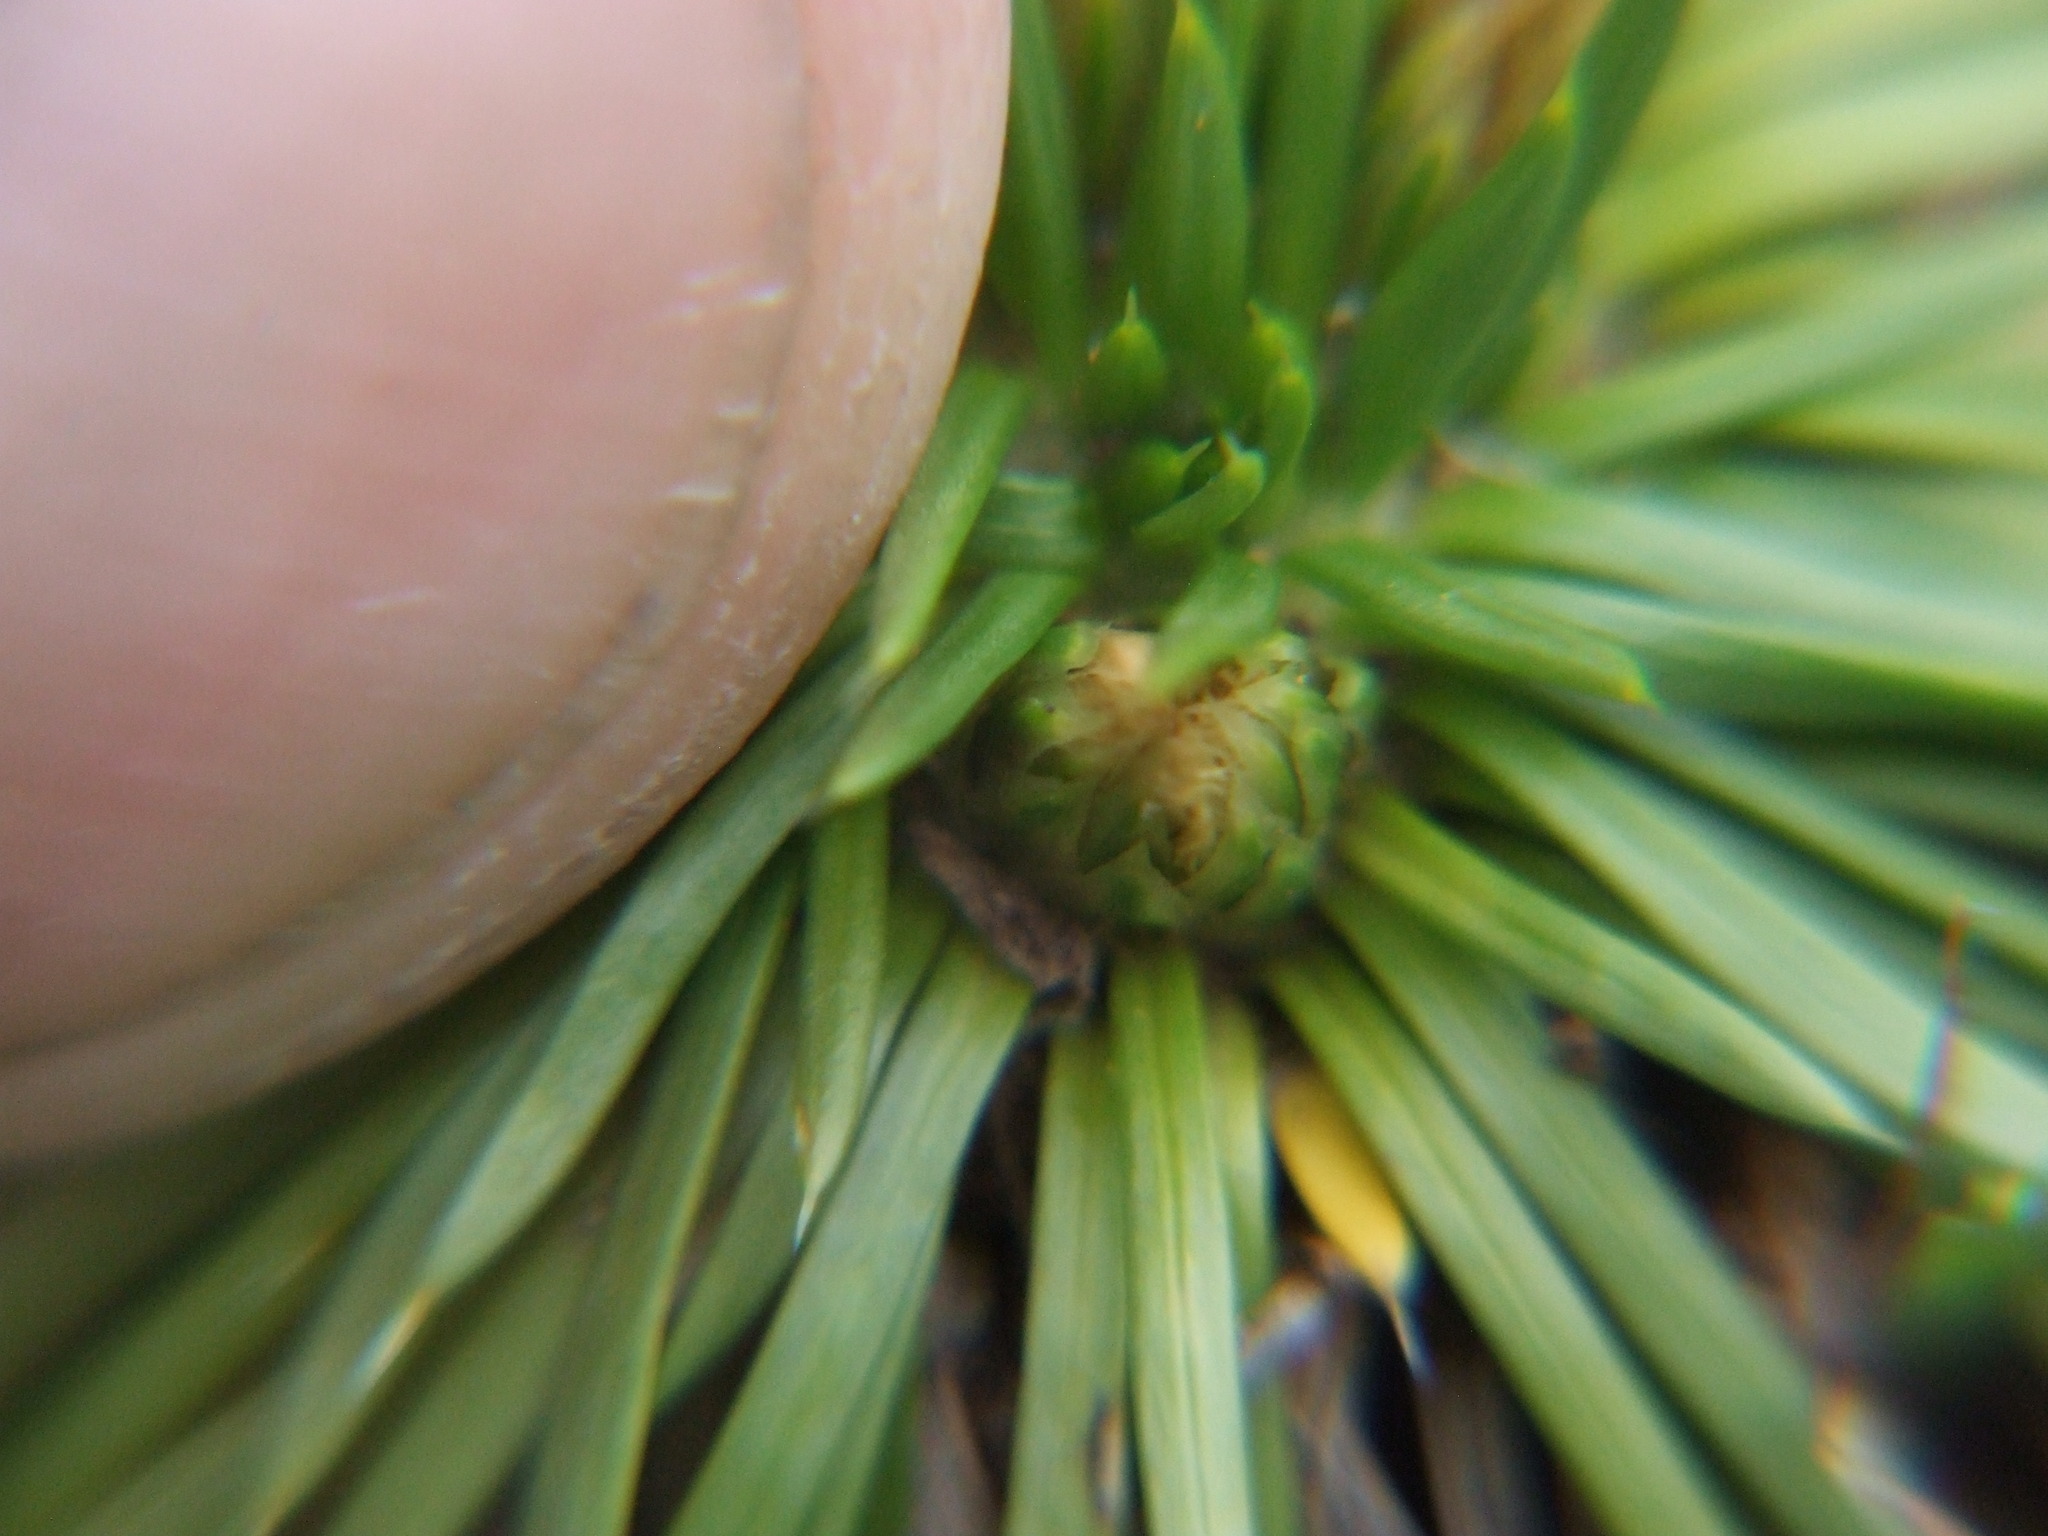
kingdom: Plantae
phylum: Tracheophyta
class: Magnoliopsida
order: Asterales
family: Asteraceae
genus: Novenia
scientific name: Novenia tunariensis
